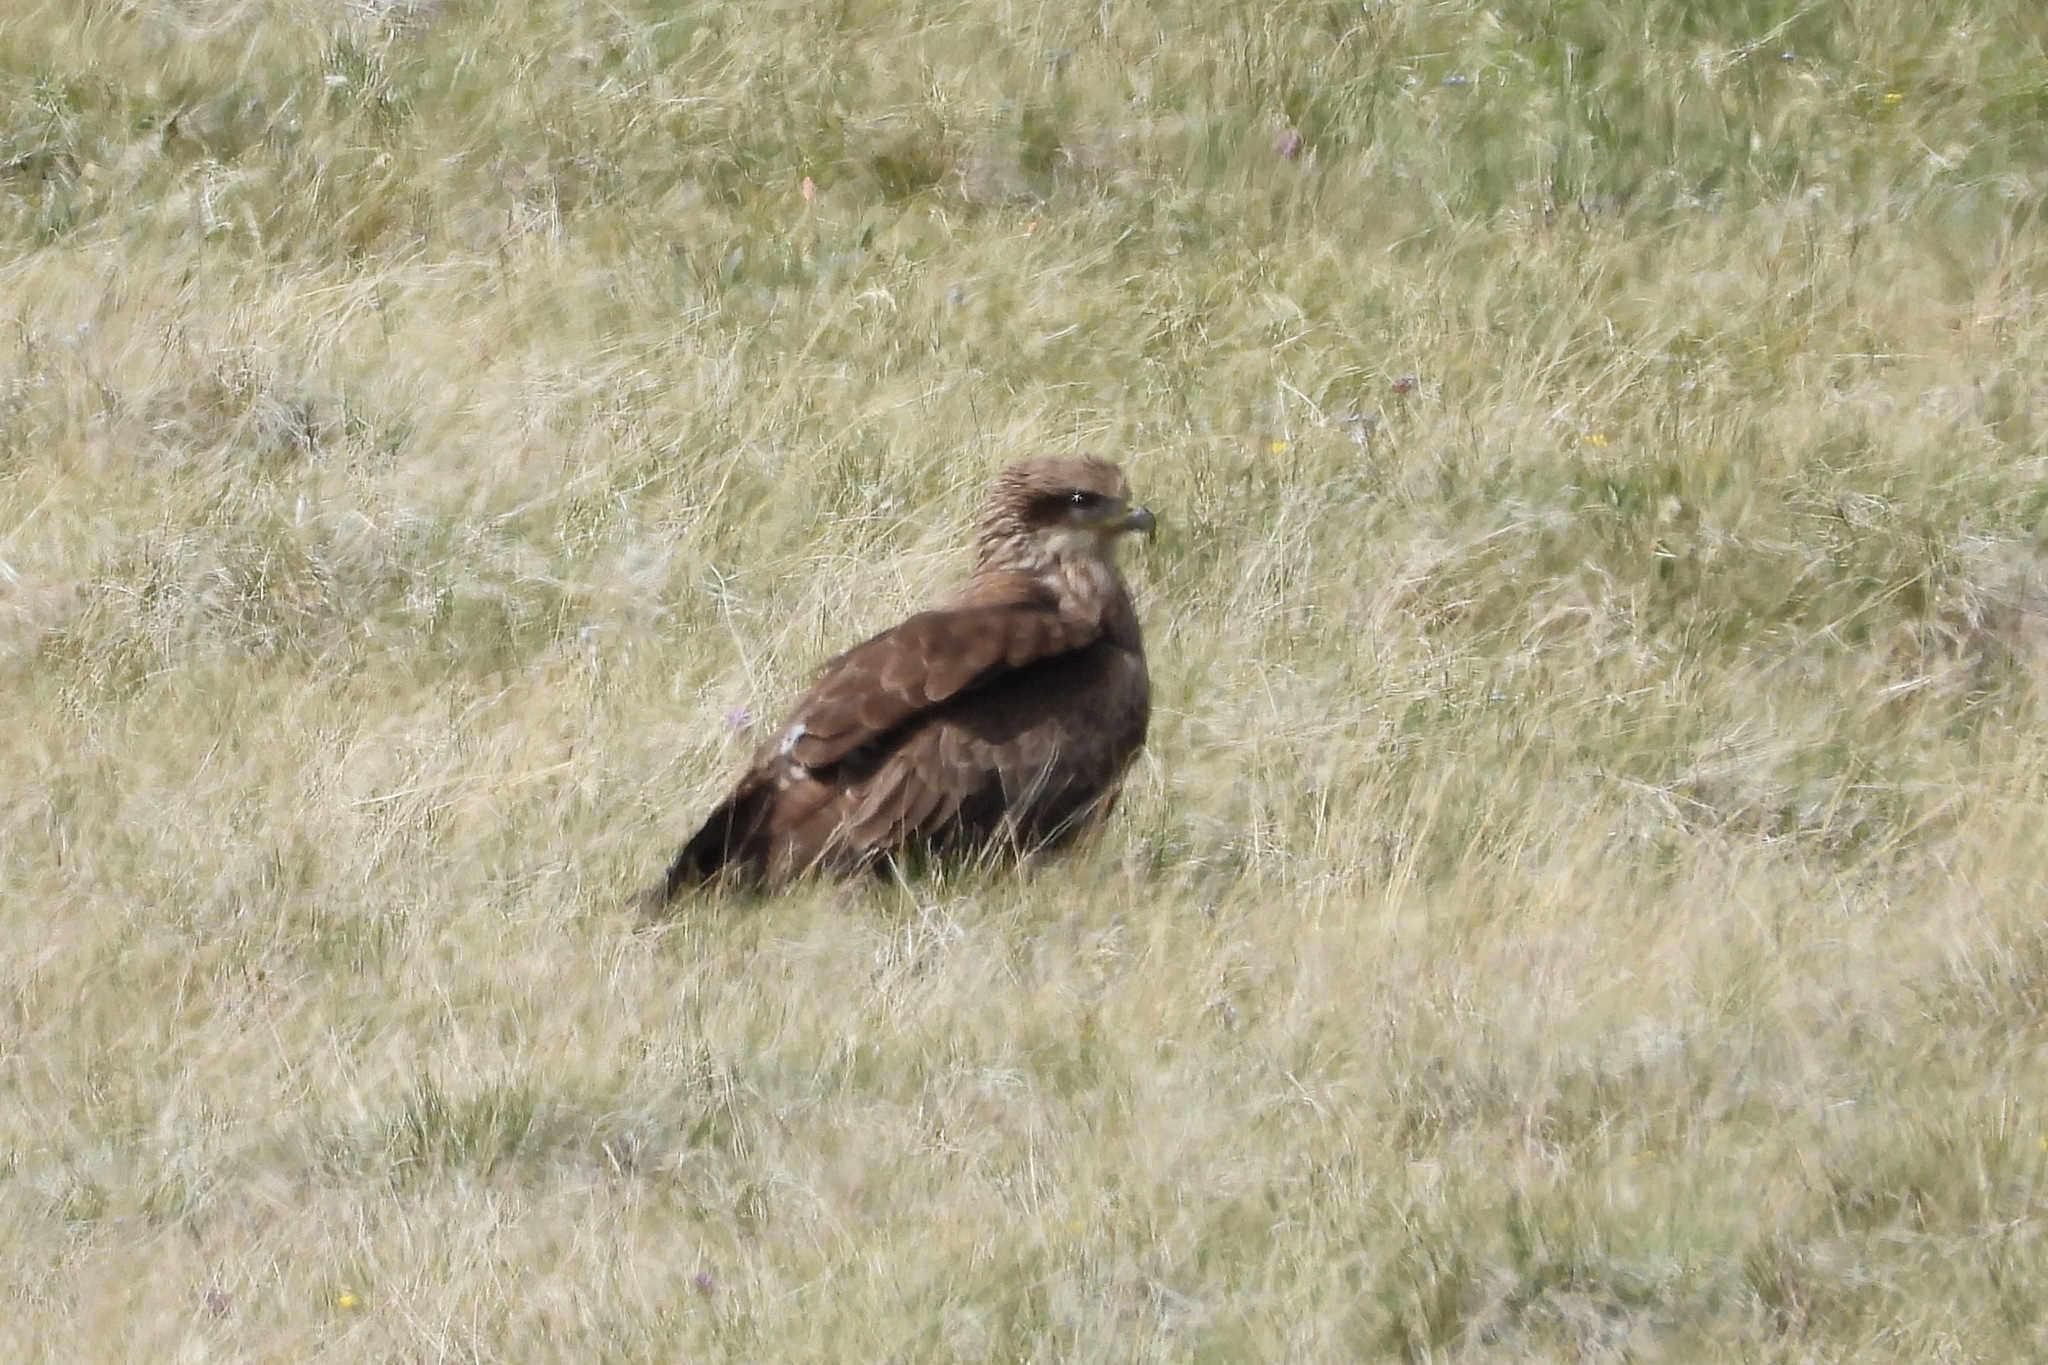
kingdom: Animalia
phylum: Chordata
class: Aves
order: Accipitriformes
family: Accipitridae
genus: Milvus
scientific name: Milvus migrans
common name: Black kite
